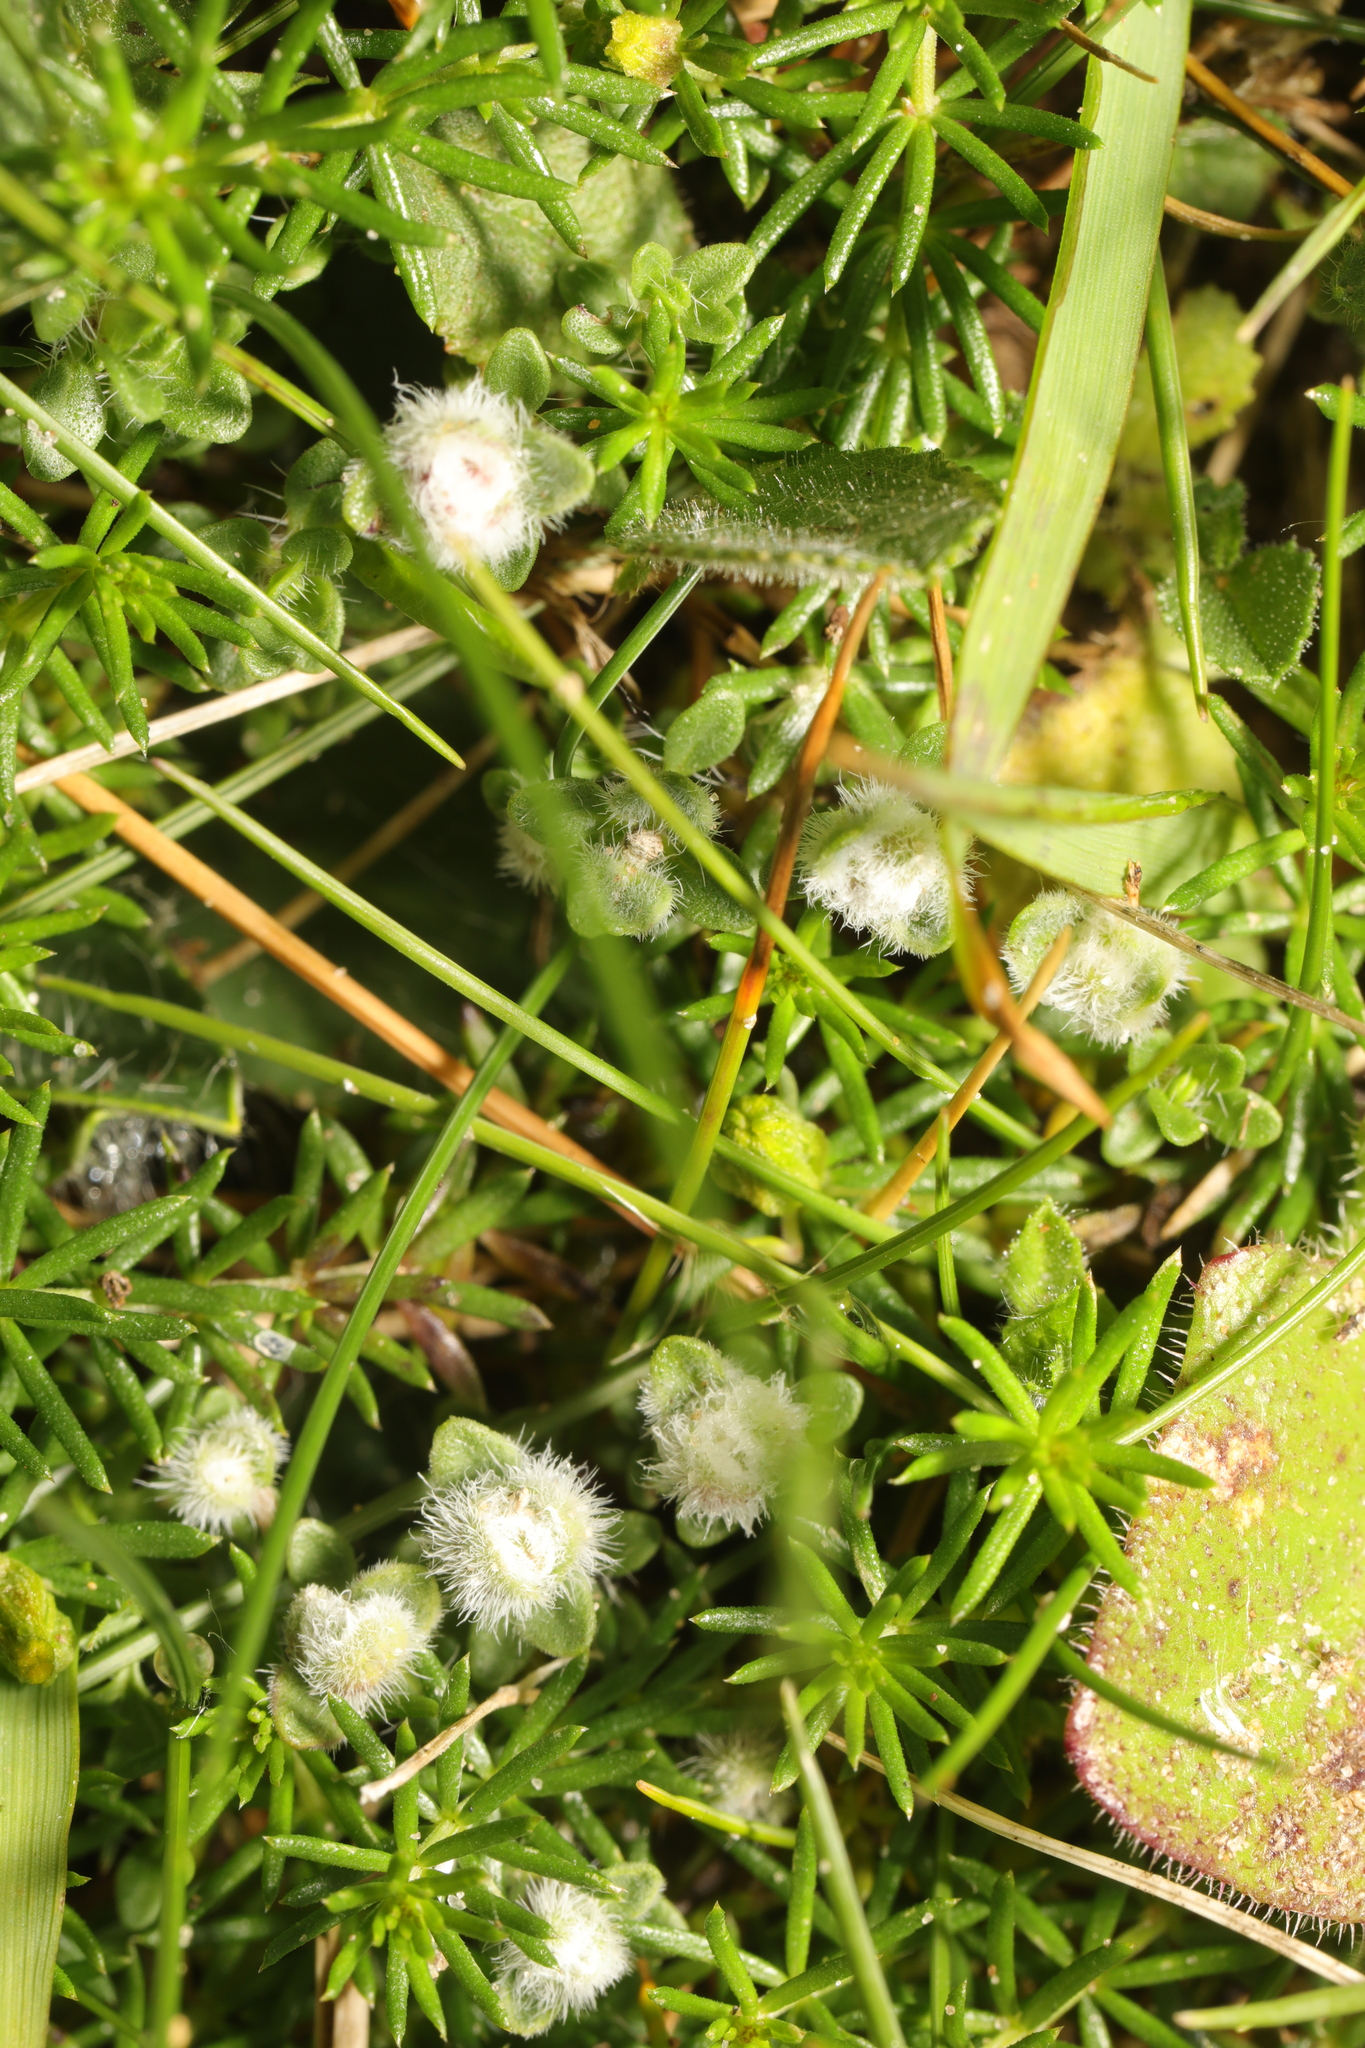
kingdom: Animalia
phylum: Arthropoda
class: Arachnida
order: Trombidiformes
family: Eriophyidae
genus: Aceria
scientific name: Aceria thomasi
